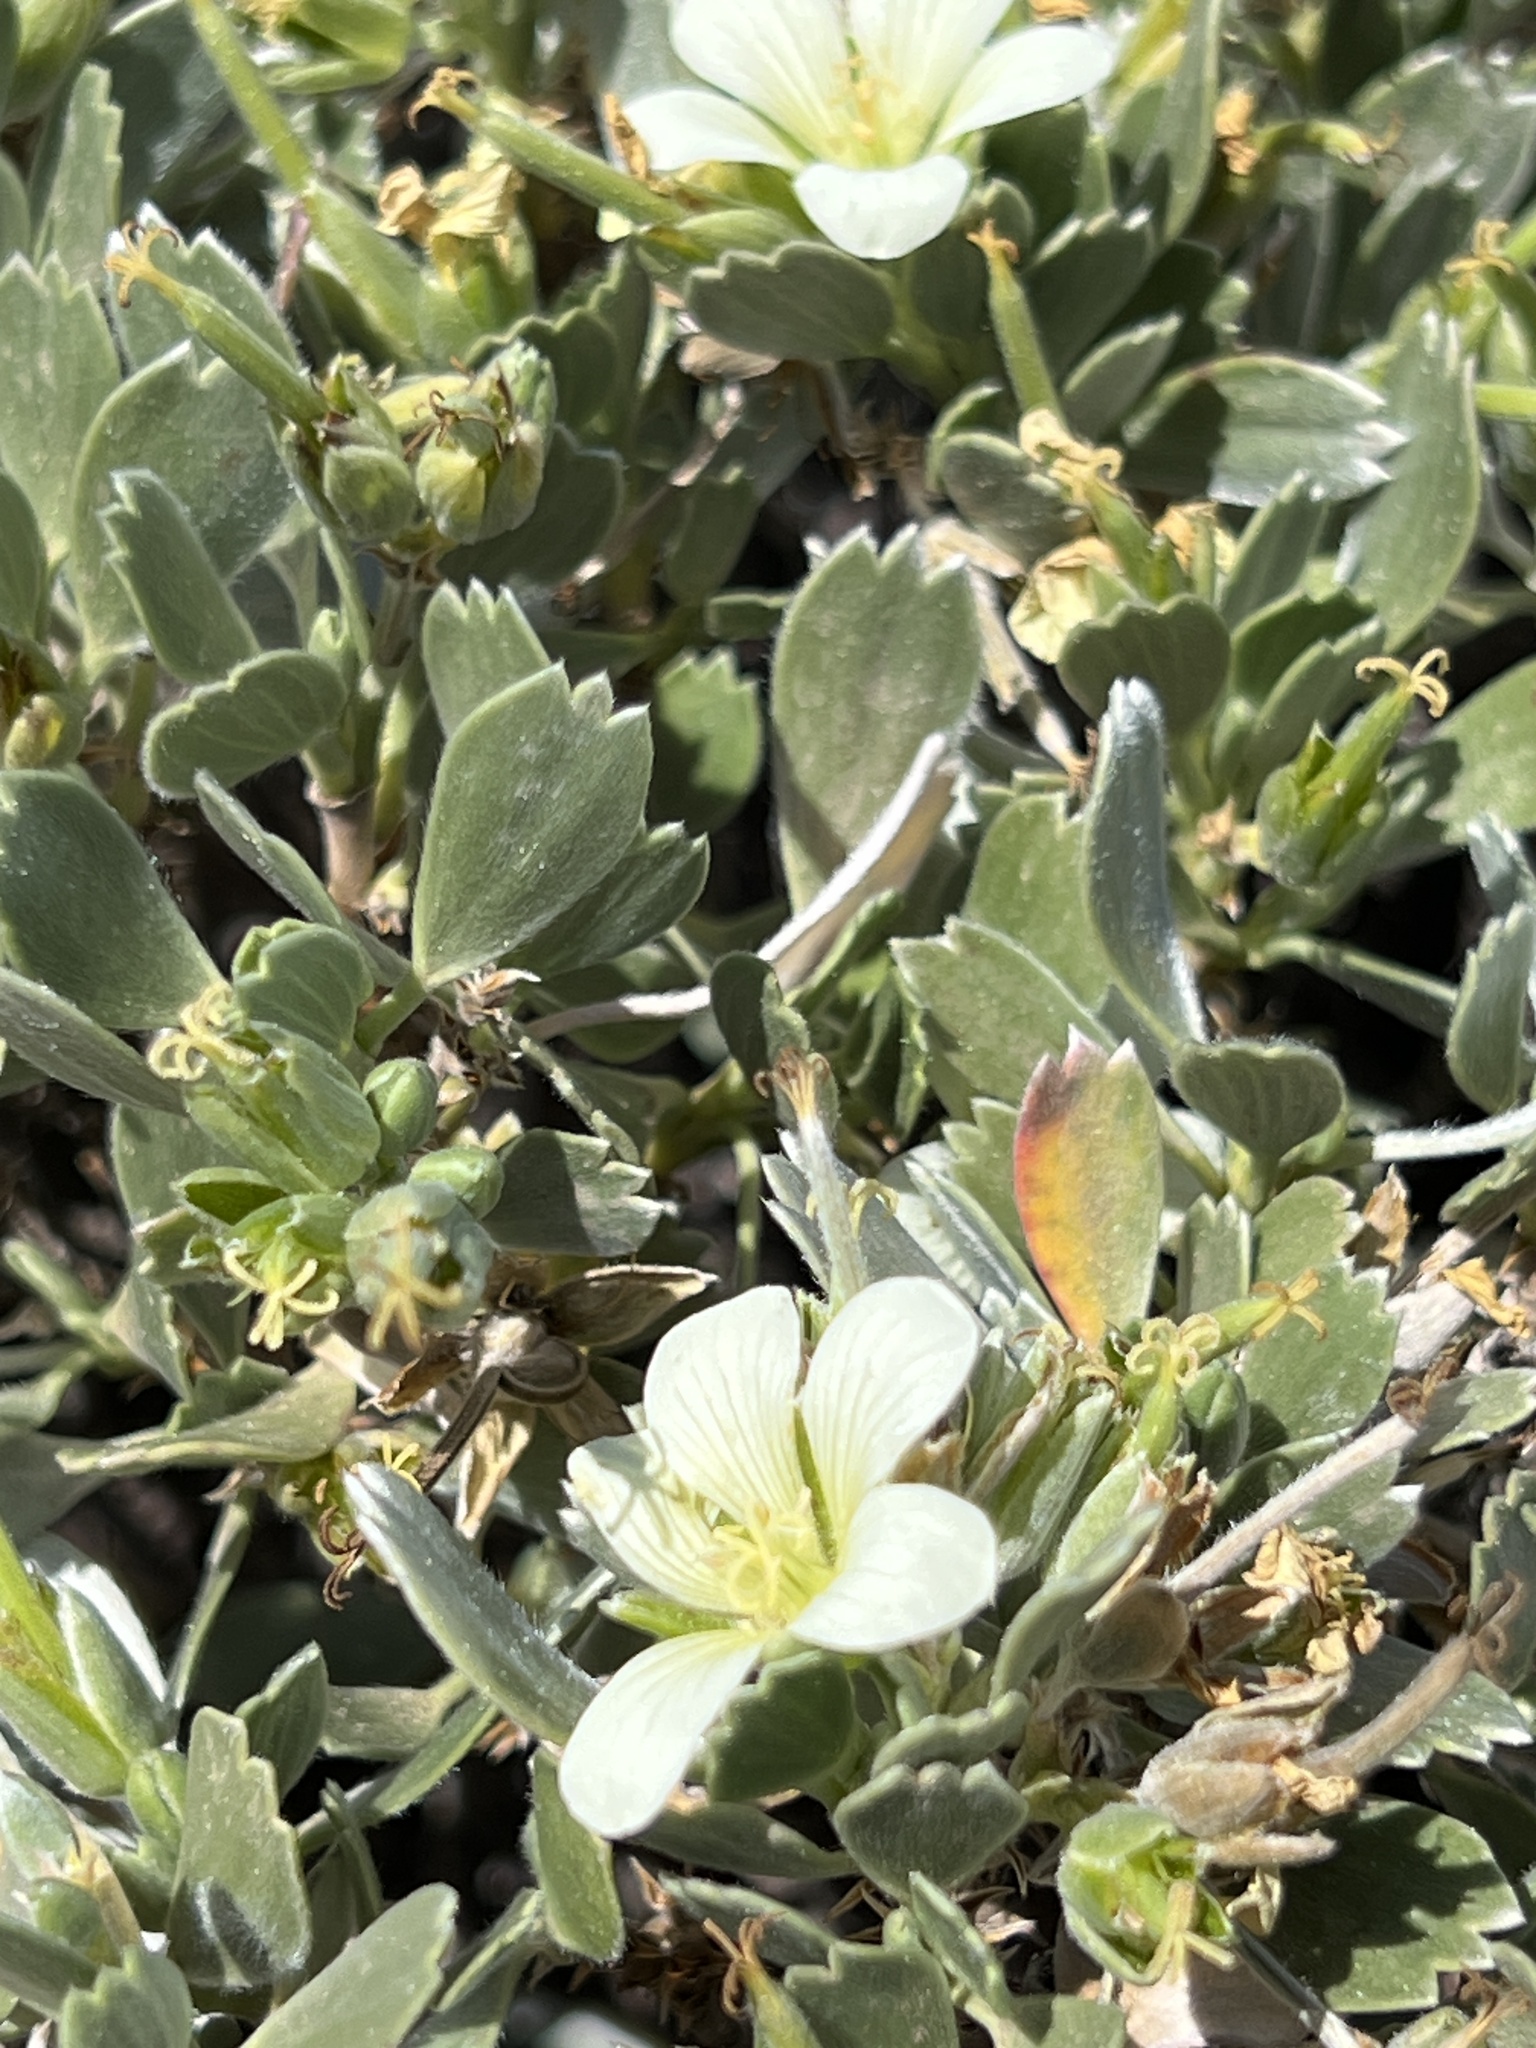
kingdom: Plantae
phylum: Tracheophyta
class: Magnoliopsida
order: Geraniales
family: Geraniaceae
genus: Geranium
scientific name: Geranium cuneatum
